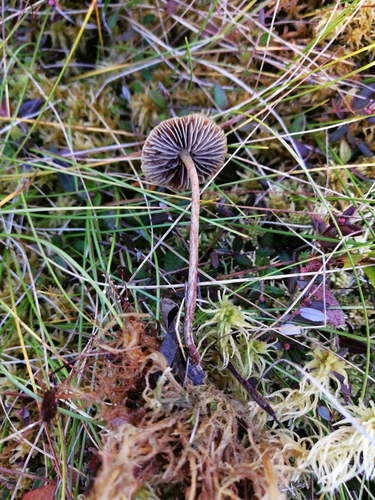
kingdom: Fungi
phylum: Basidiomycota
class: Agaricomycetes
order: Agaricales
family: Strophariaceae
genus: Bogbodia
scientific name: Bogbodia uda
